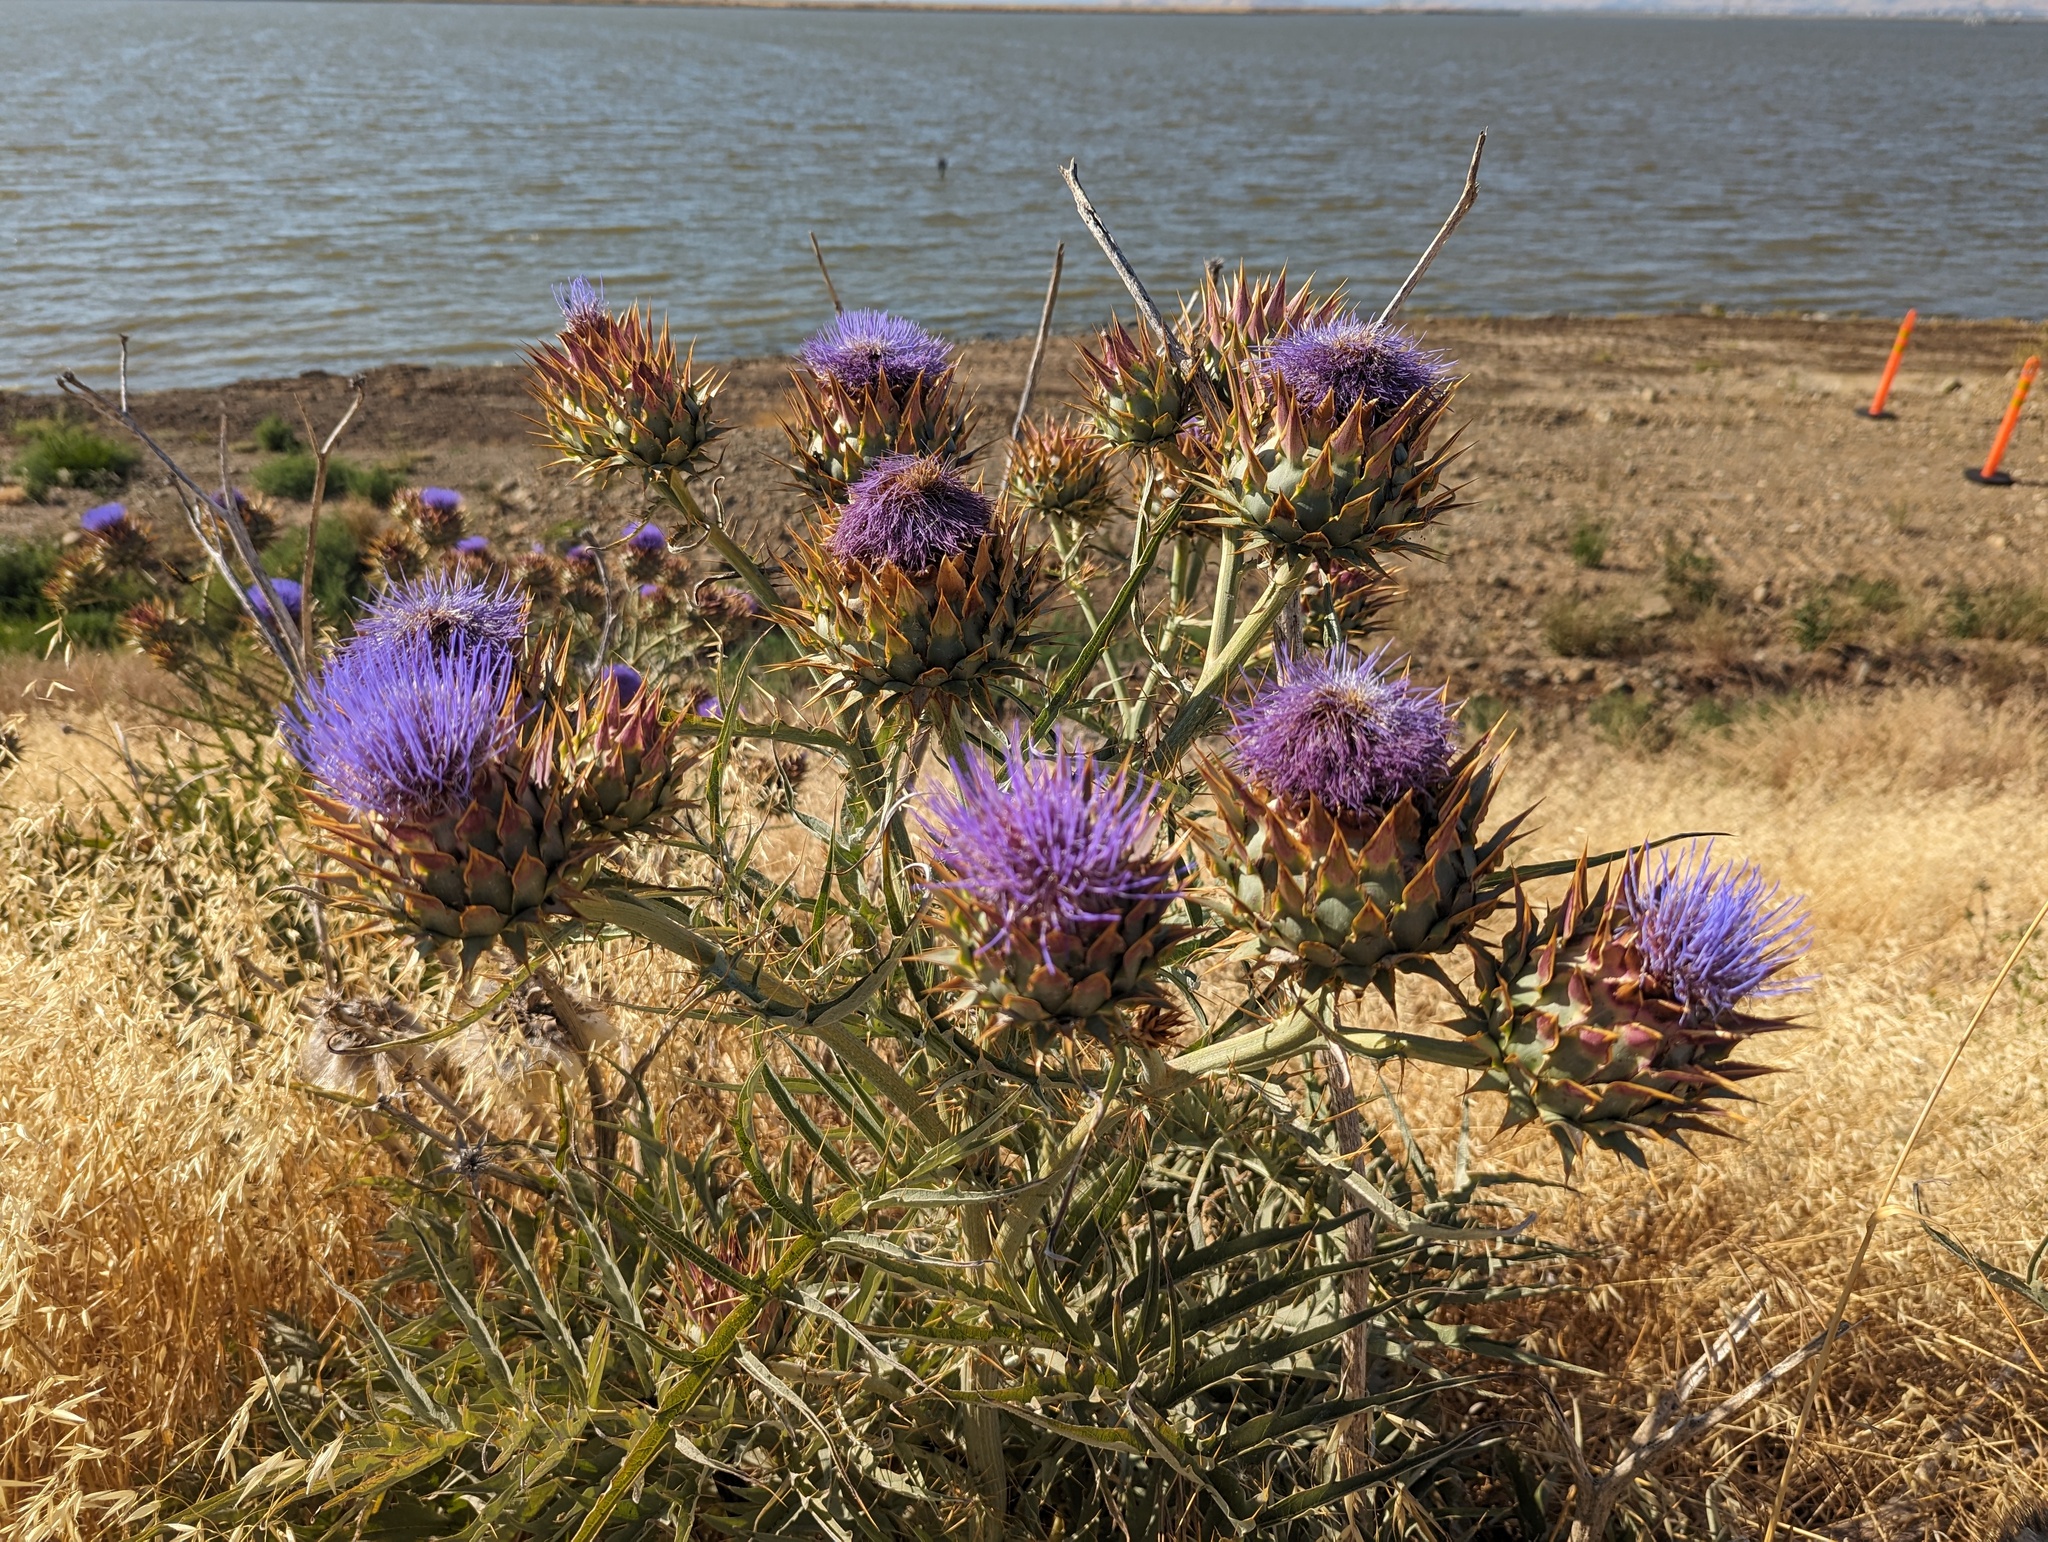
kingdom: Plantae
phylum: Tracheophyta
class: Magnoliopsida
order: Asterales
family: Asteraceae
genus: Cynara
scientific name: Cynara cardunculus
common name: Globe artichoke
